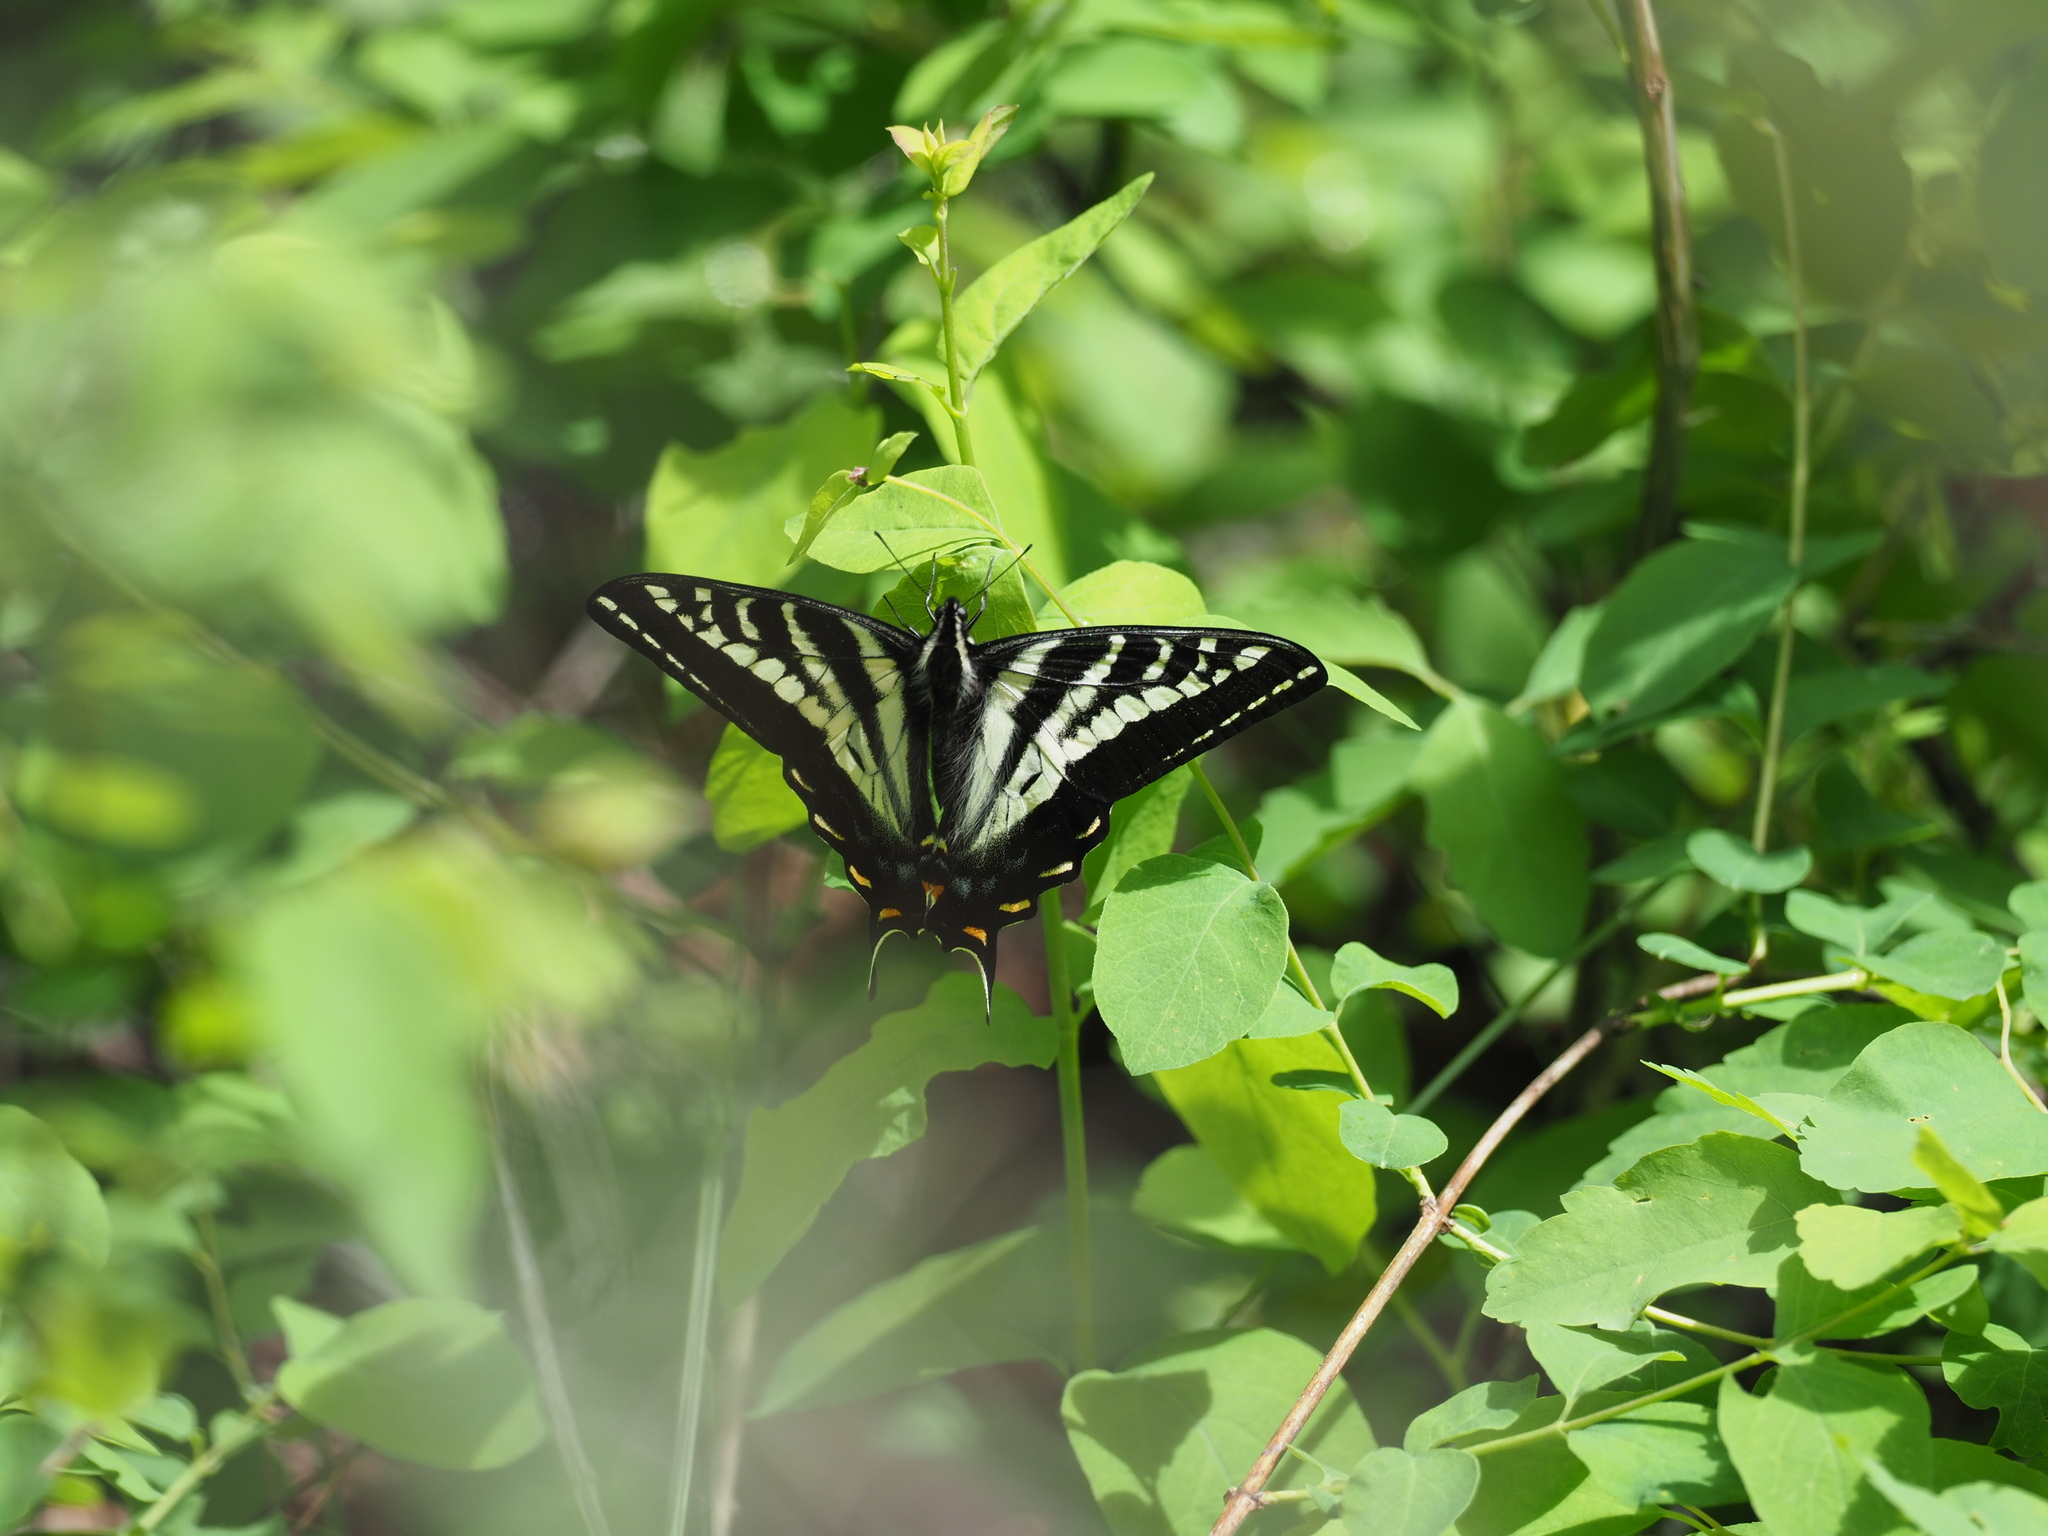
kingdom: Animalia
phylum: Arthropoda
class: Insecta
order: Lepidoptera
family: Papilionidae
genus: Papilio
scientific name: Papilio eurymedon
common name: Pale tiger swallowtail
